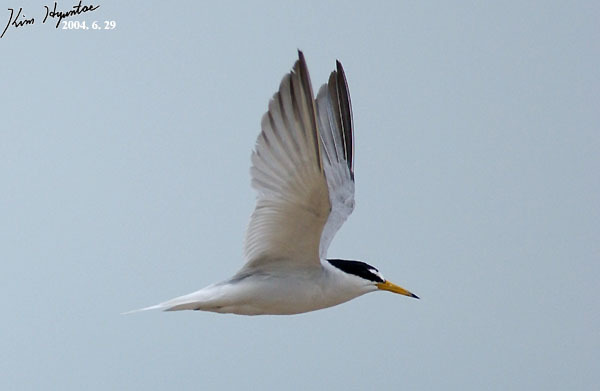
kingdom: Animalia
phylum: Chordata
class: Aves
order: Charadriiformes
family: Laridae
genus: Sternula
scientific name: Sternula albifrons
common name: Little tern
